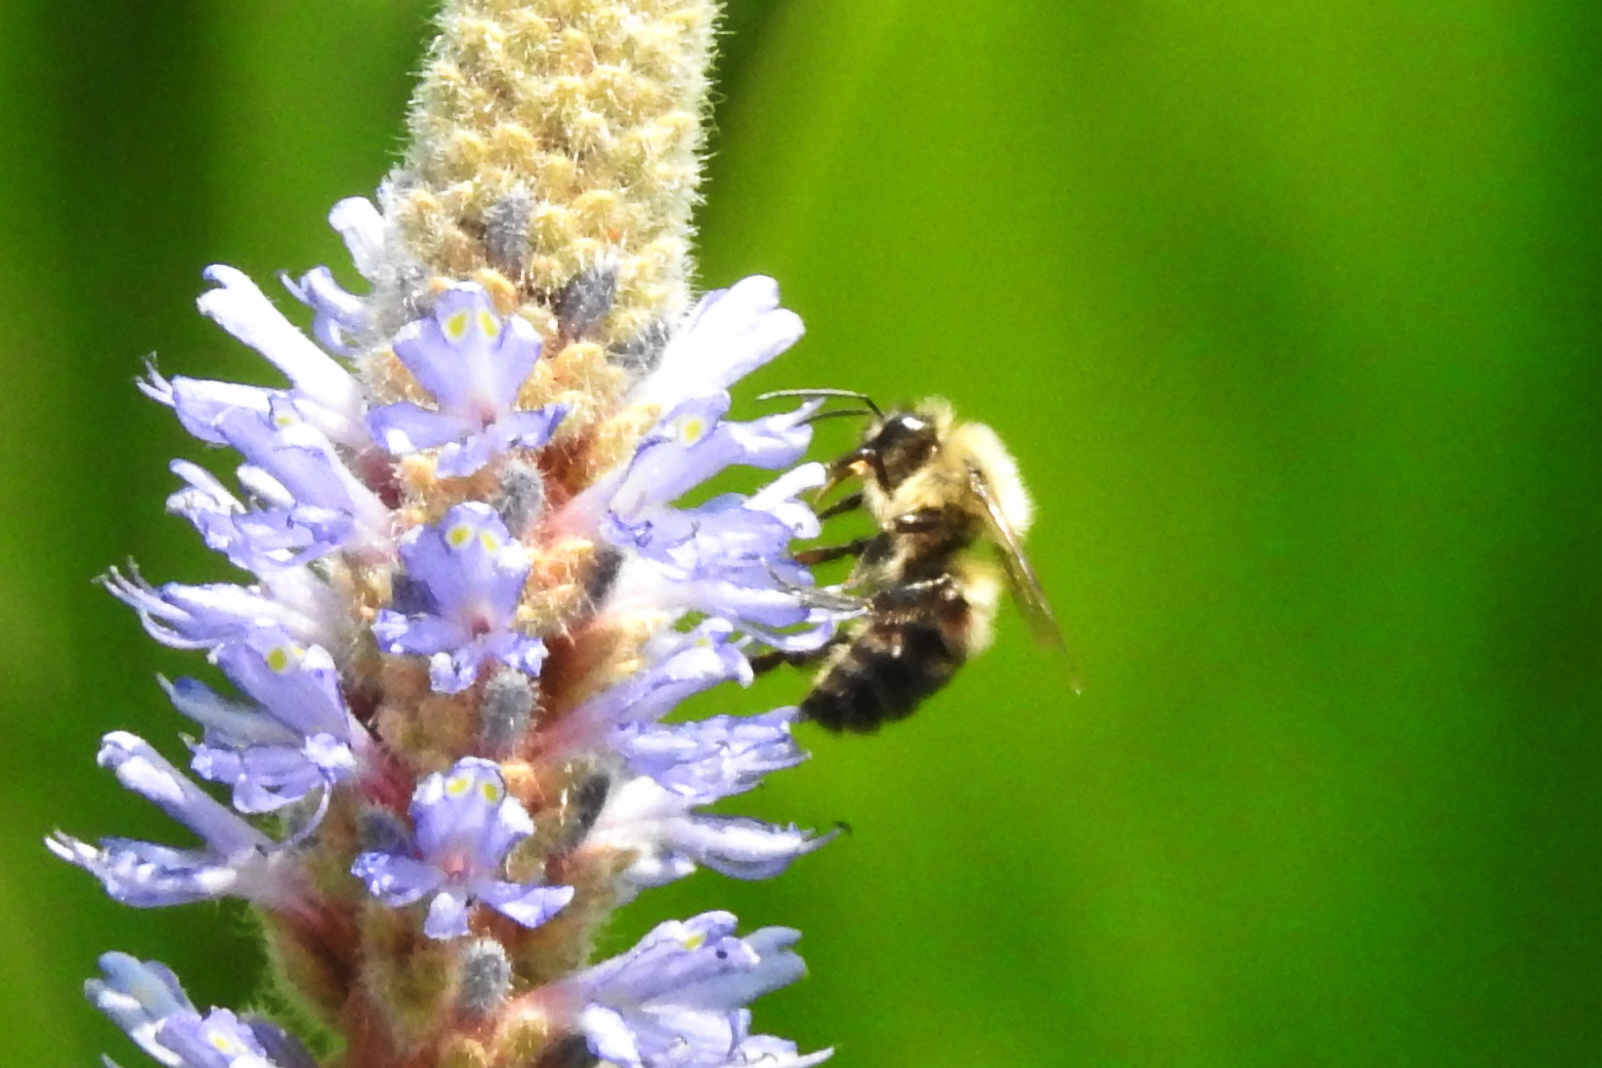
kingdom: Animalia
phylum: Arthropoda
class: Insecta
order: Hymenoptera
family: Apidae
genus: Bombus
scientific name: Bombus bimaculatus
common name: Two-spotted bumble bee
